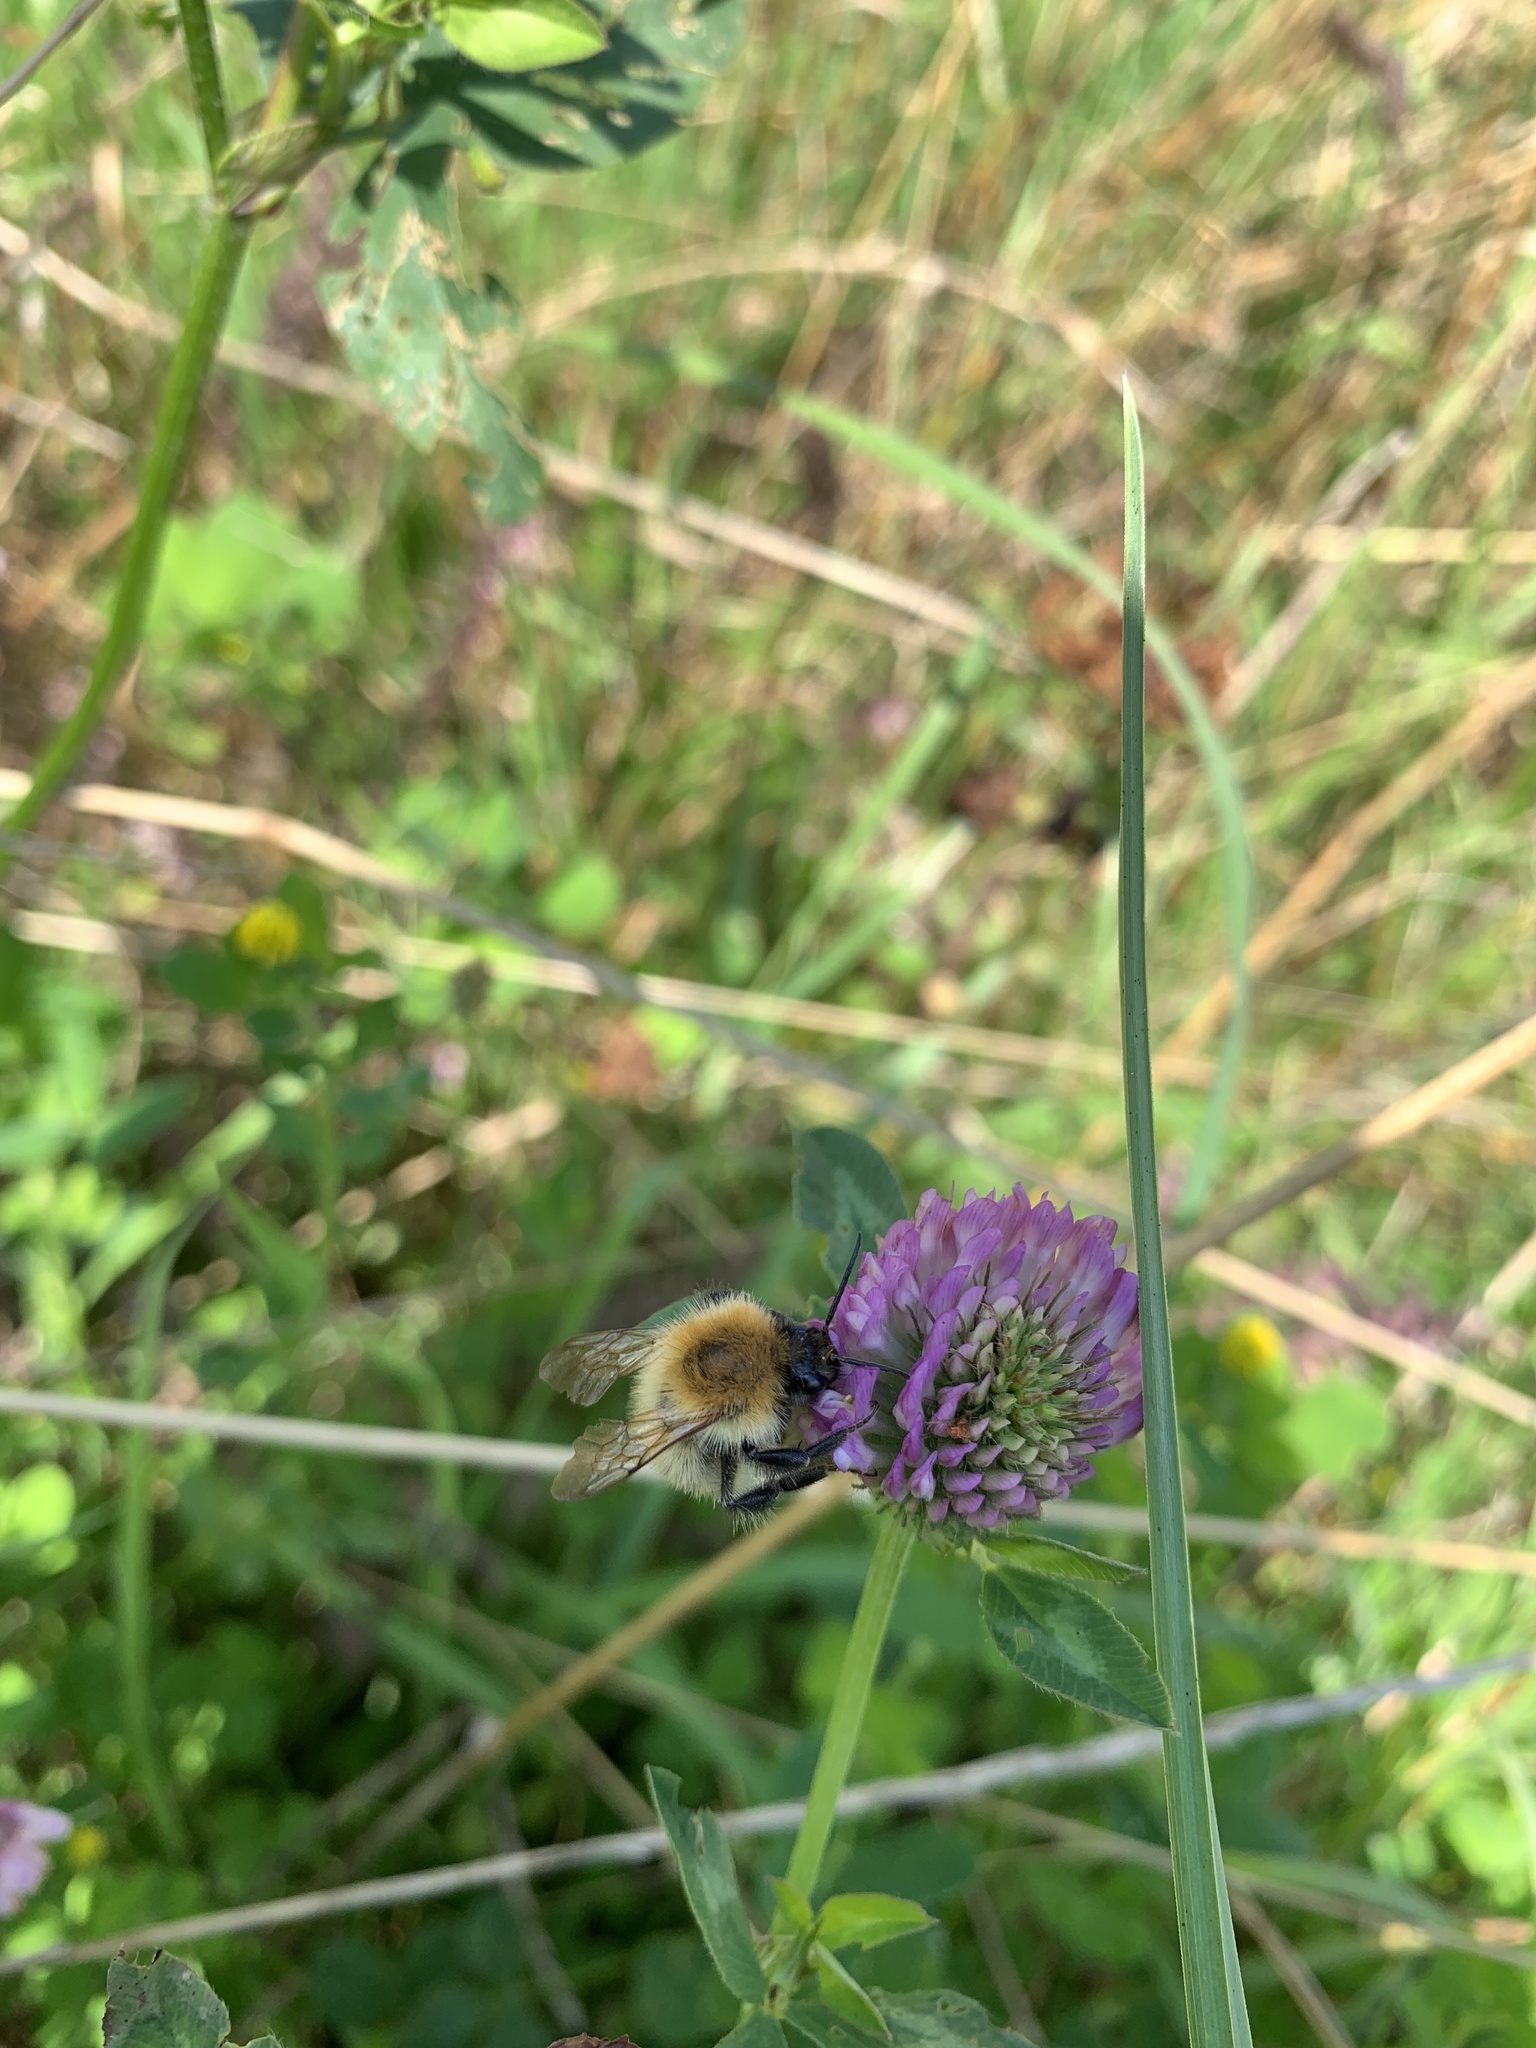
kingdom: Animalia
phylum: Arthropoda
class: Insecta
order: Hymenoptera
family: Apidae
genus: Bombus
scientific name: Bombus pascuorum
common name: Common carder bee
